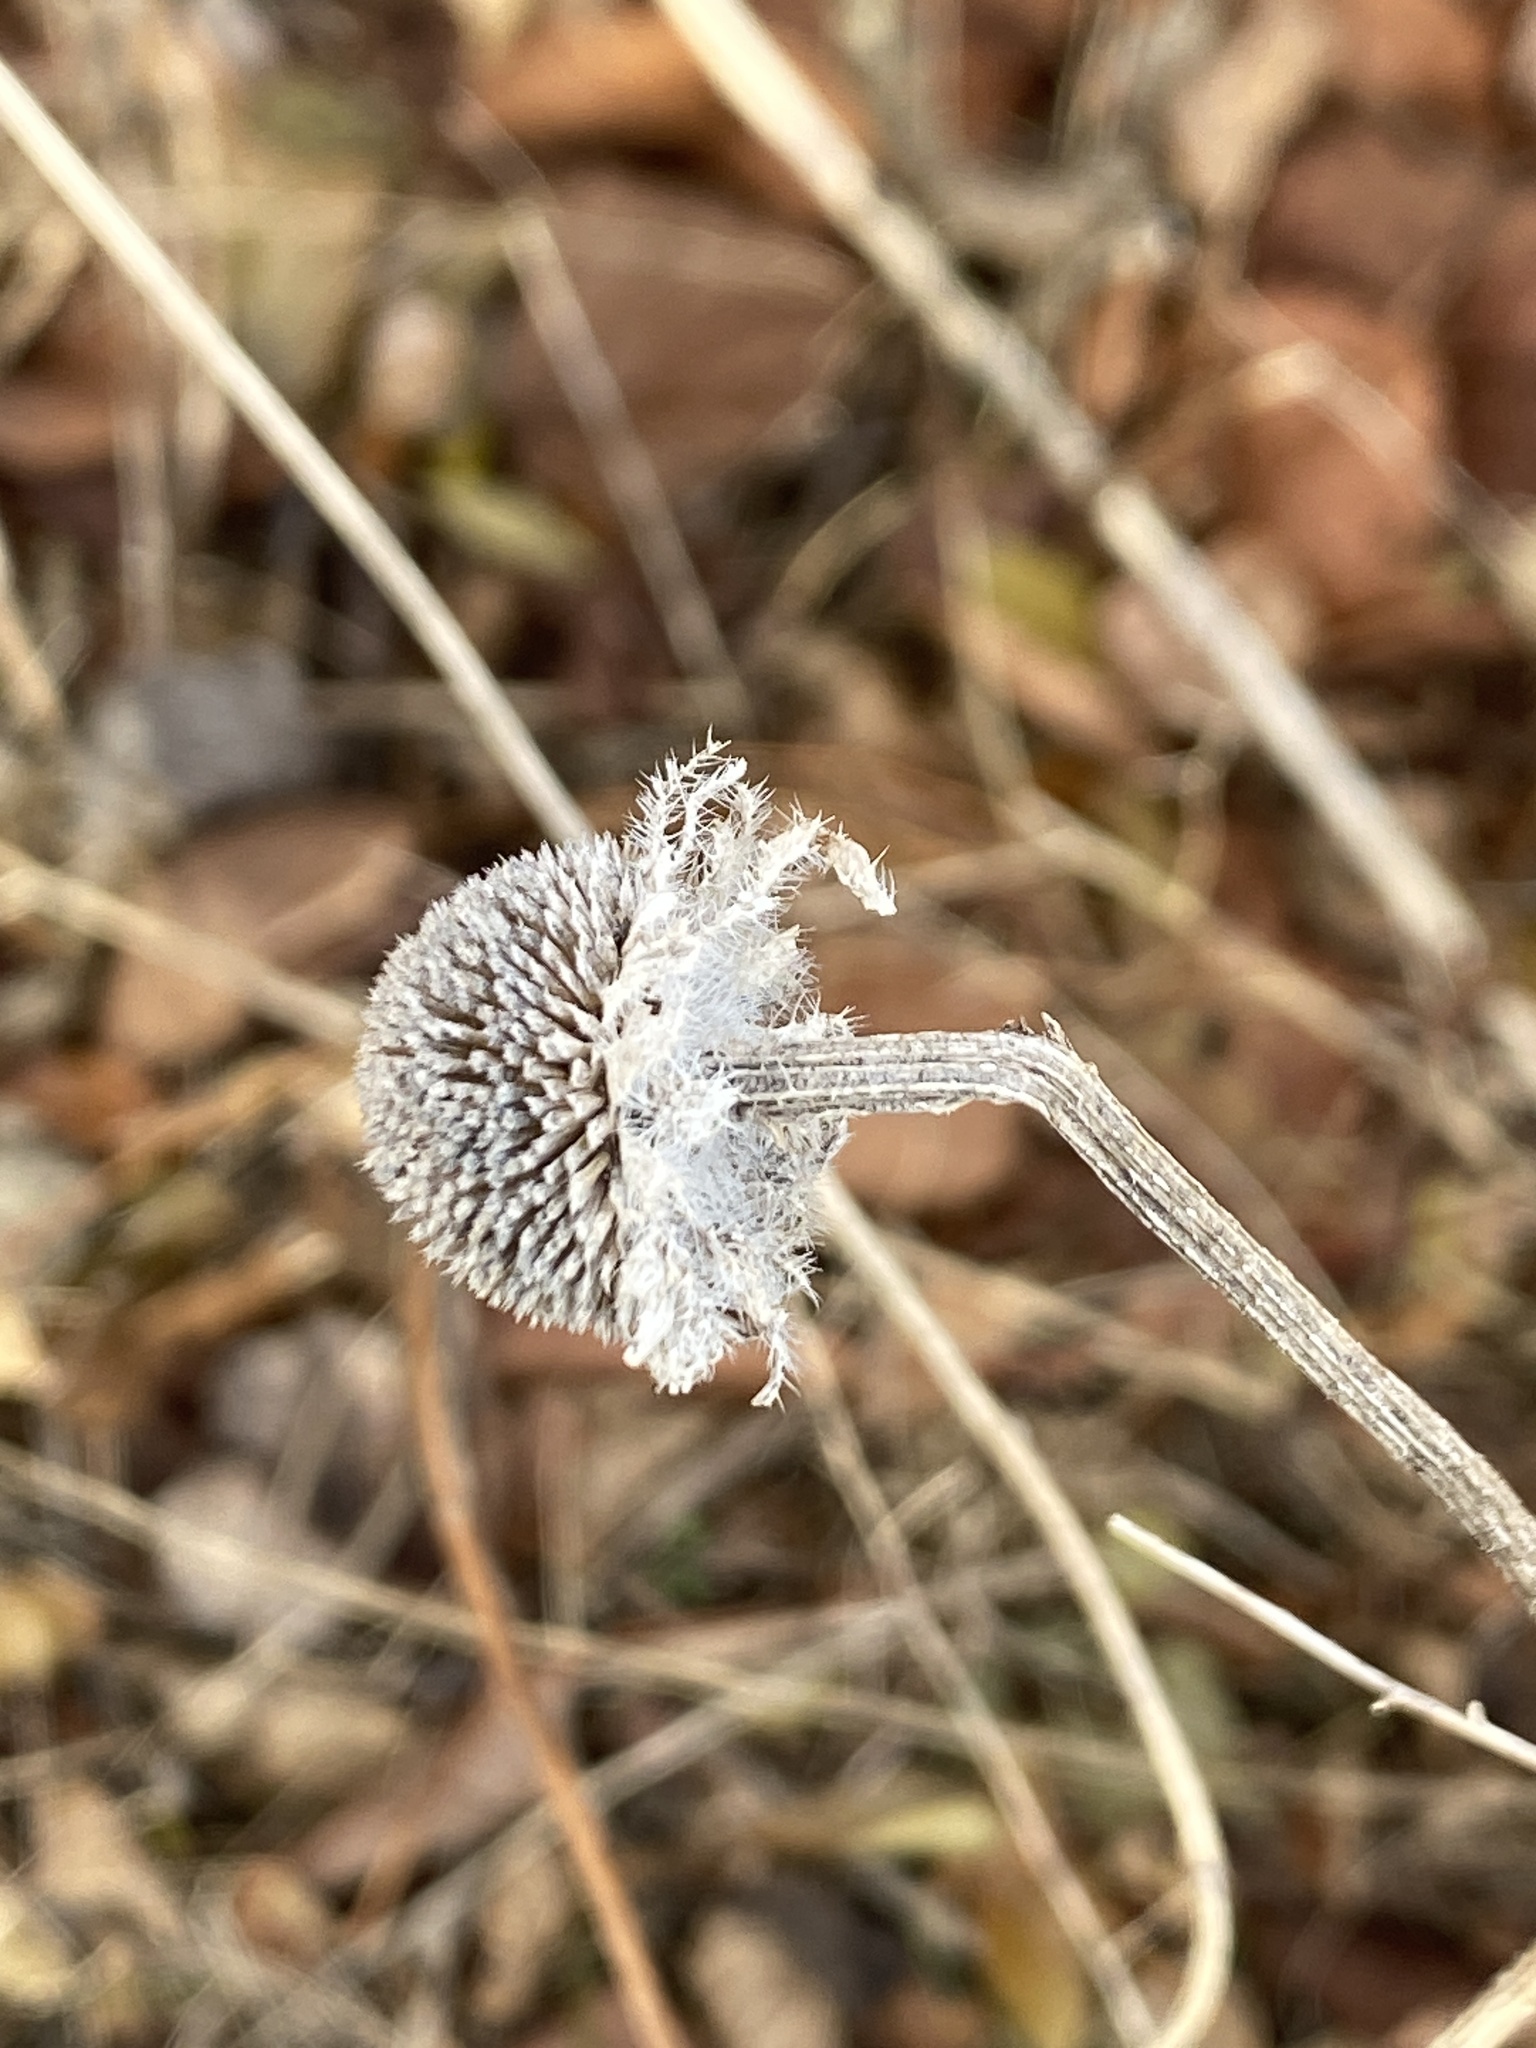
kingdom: Plantae
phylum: Tracheophyta
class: Magnoliopsida
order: Asterales
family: Asteraceae
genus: Rudbeckia
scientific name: Rudbeckia hirta
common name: Black-eyed-susan
